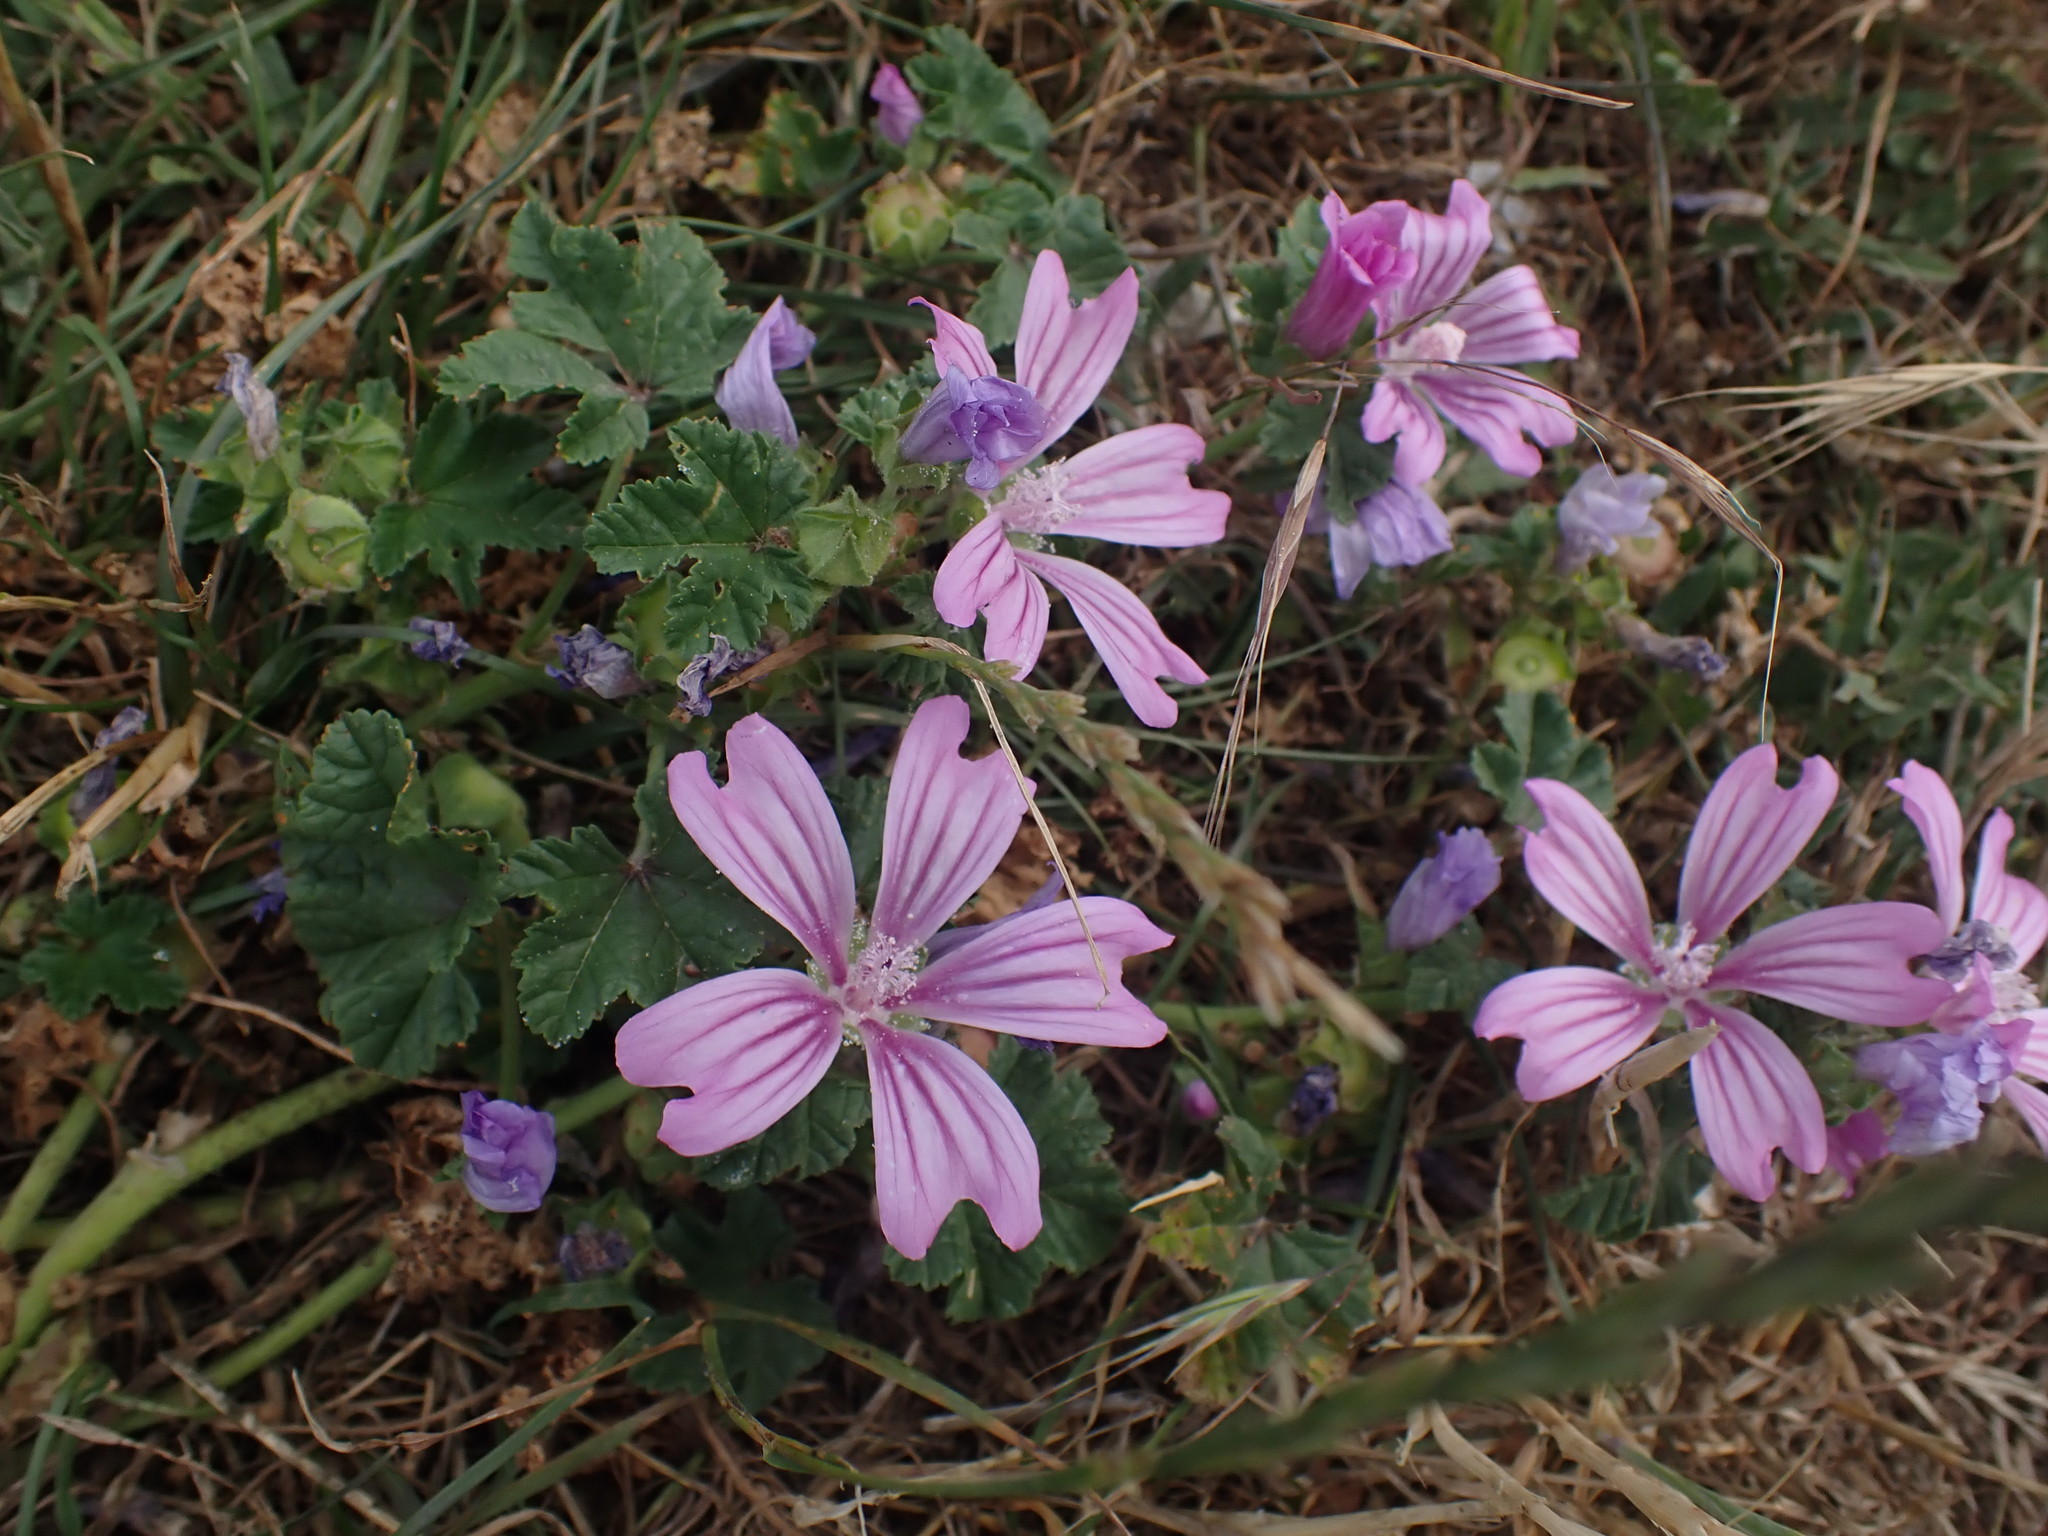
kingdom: Plantae
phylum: Tracheophyta
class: Magnoliopsida
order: Malvales
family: Malvaceae
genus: Malva
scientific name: Malva sylvestris
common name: Common mallow
